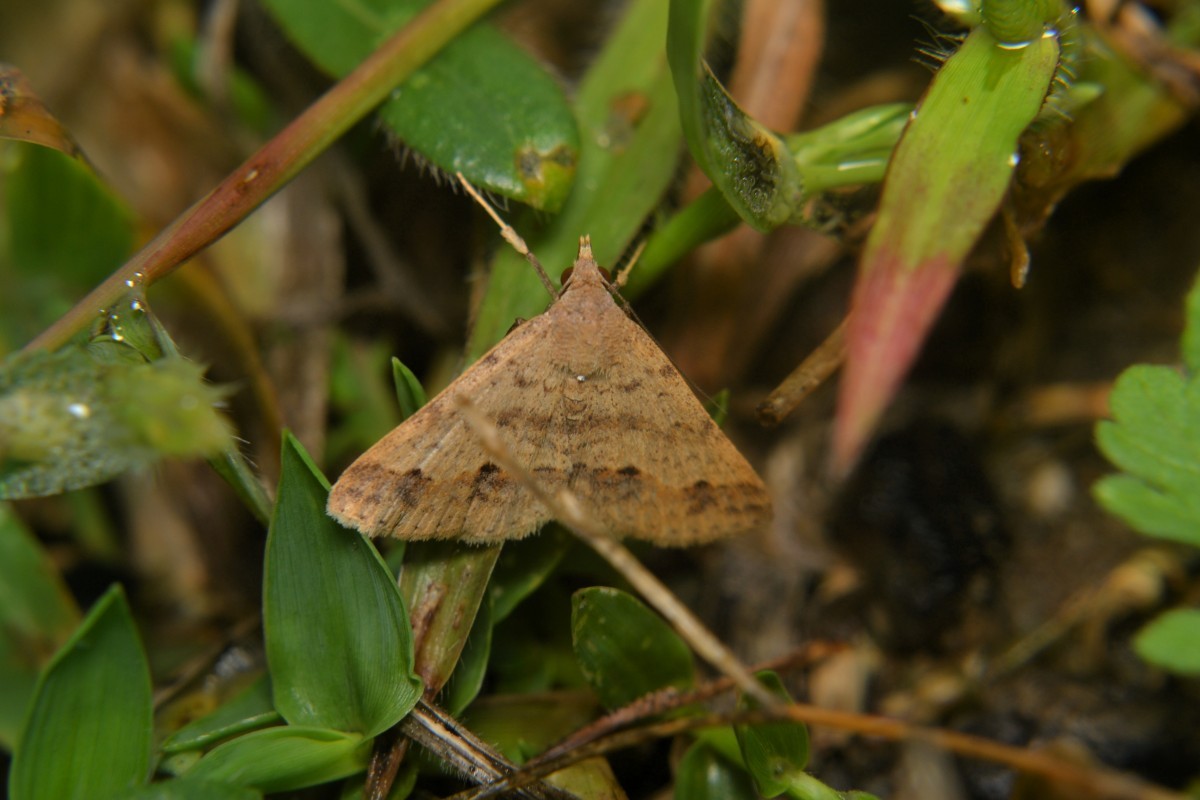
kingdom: Animalia
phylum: Arthropoda
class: Insecta
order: Lepidoptera
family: Erebidae
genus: Gesonia
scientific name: Gesonia obeditalis
